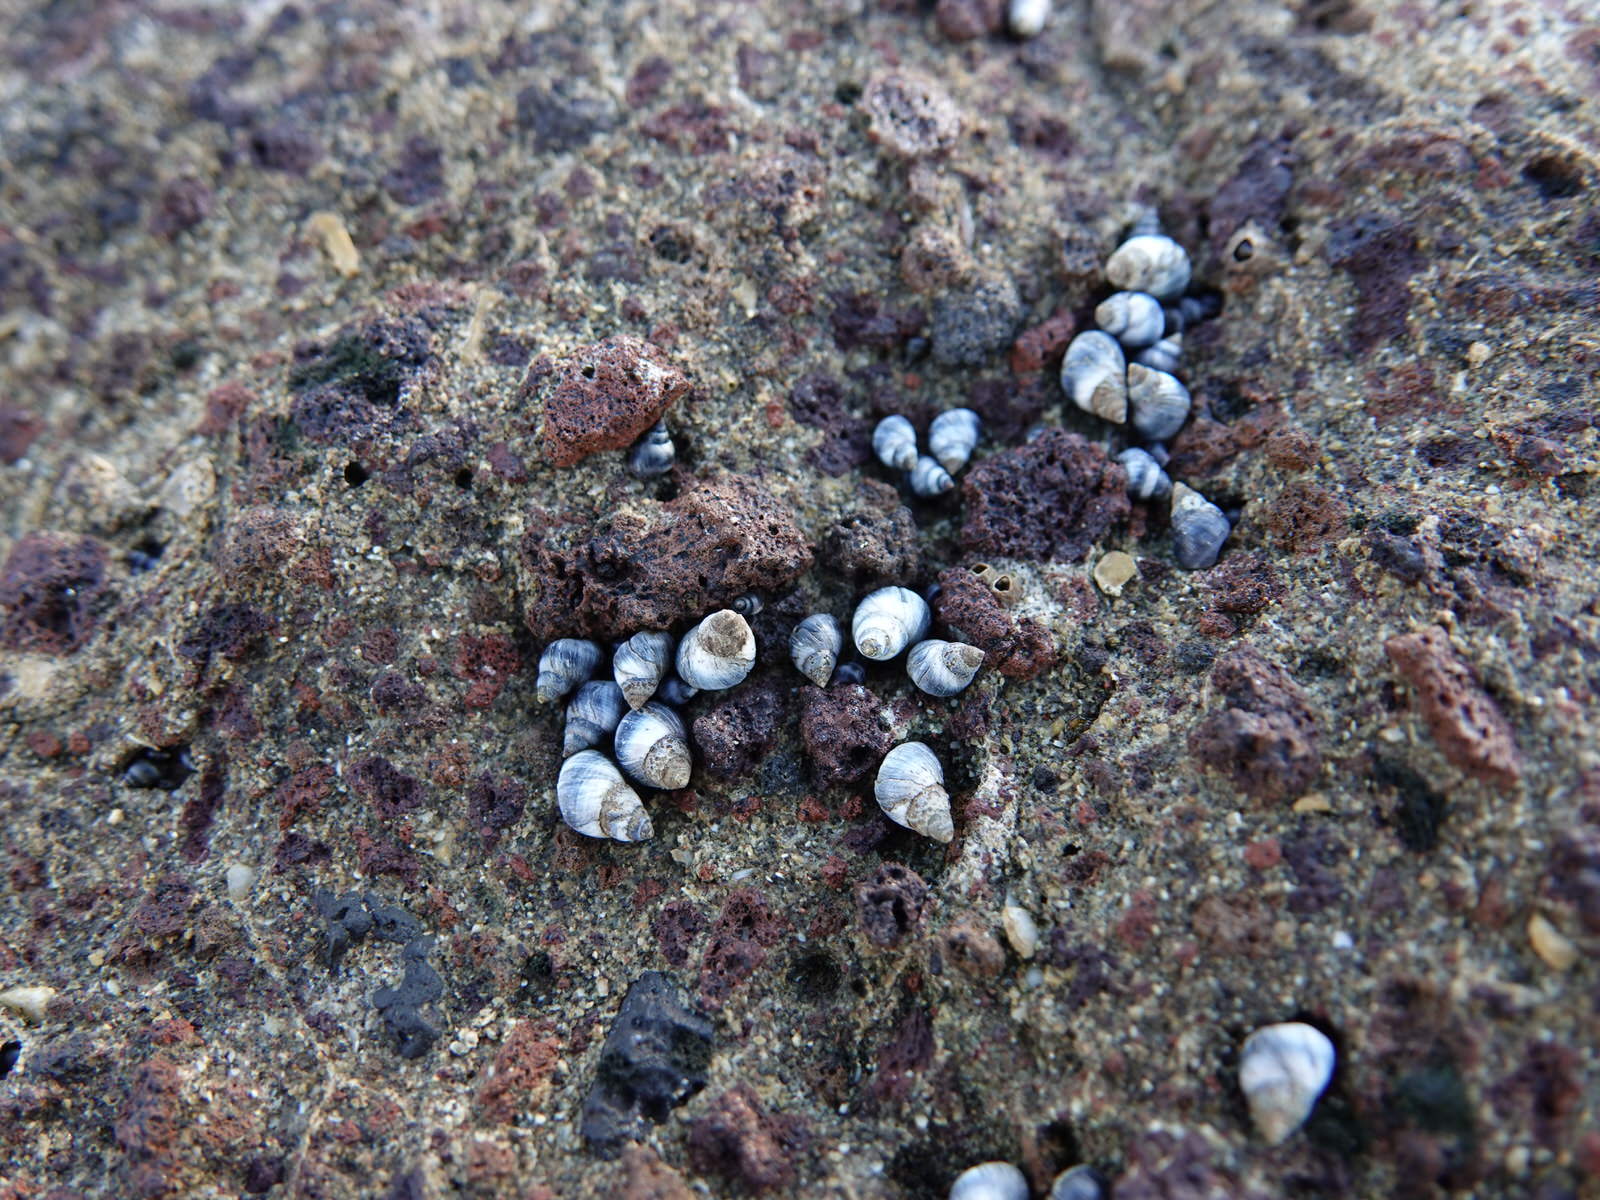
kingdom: Animalia
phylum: Mollusca
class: Gastropoda
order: Littorinimorpha
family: Littorinidae
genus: Austrolittorina
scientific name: Austrolittorina antipodum
